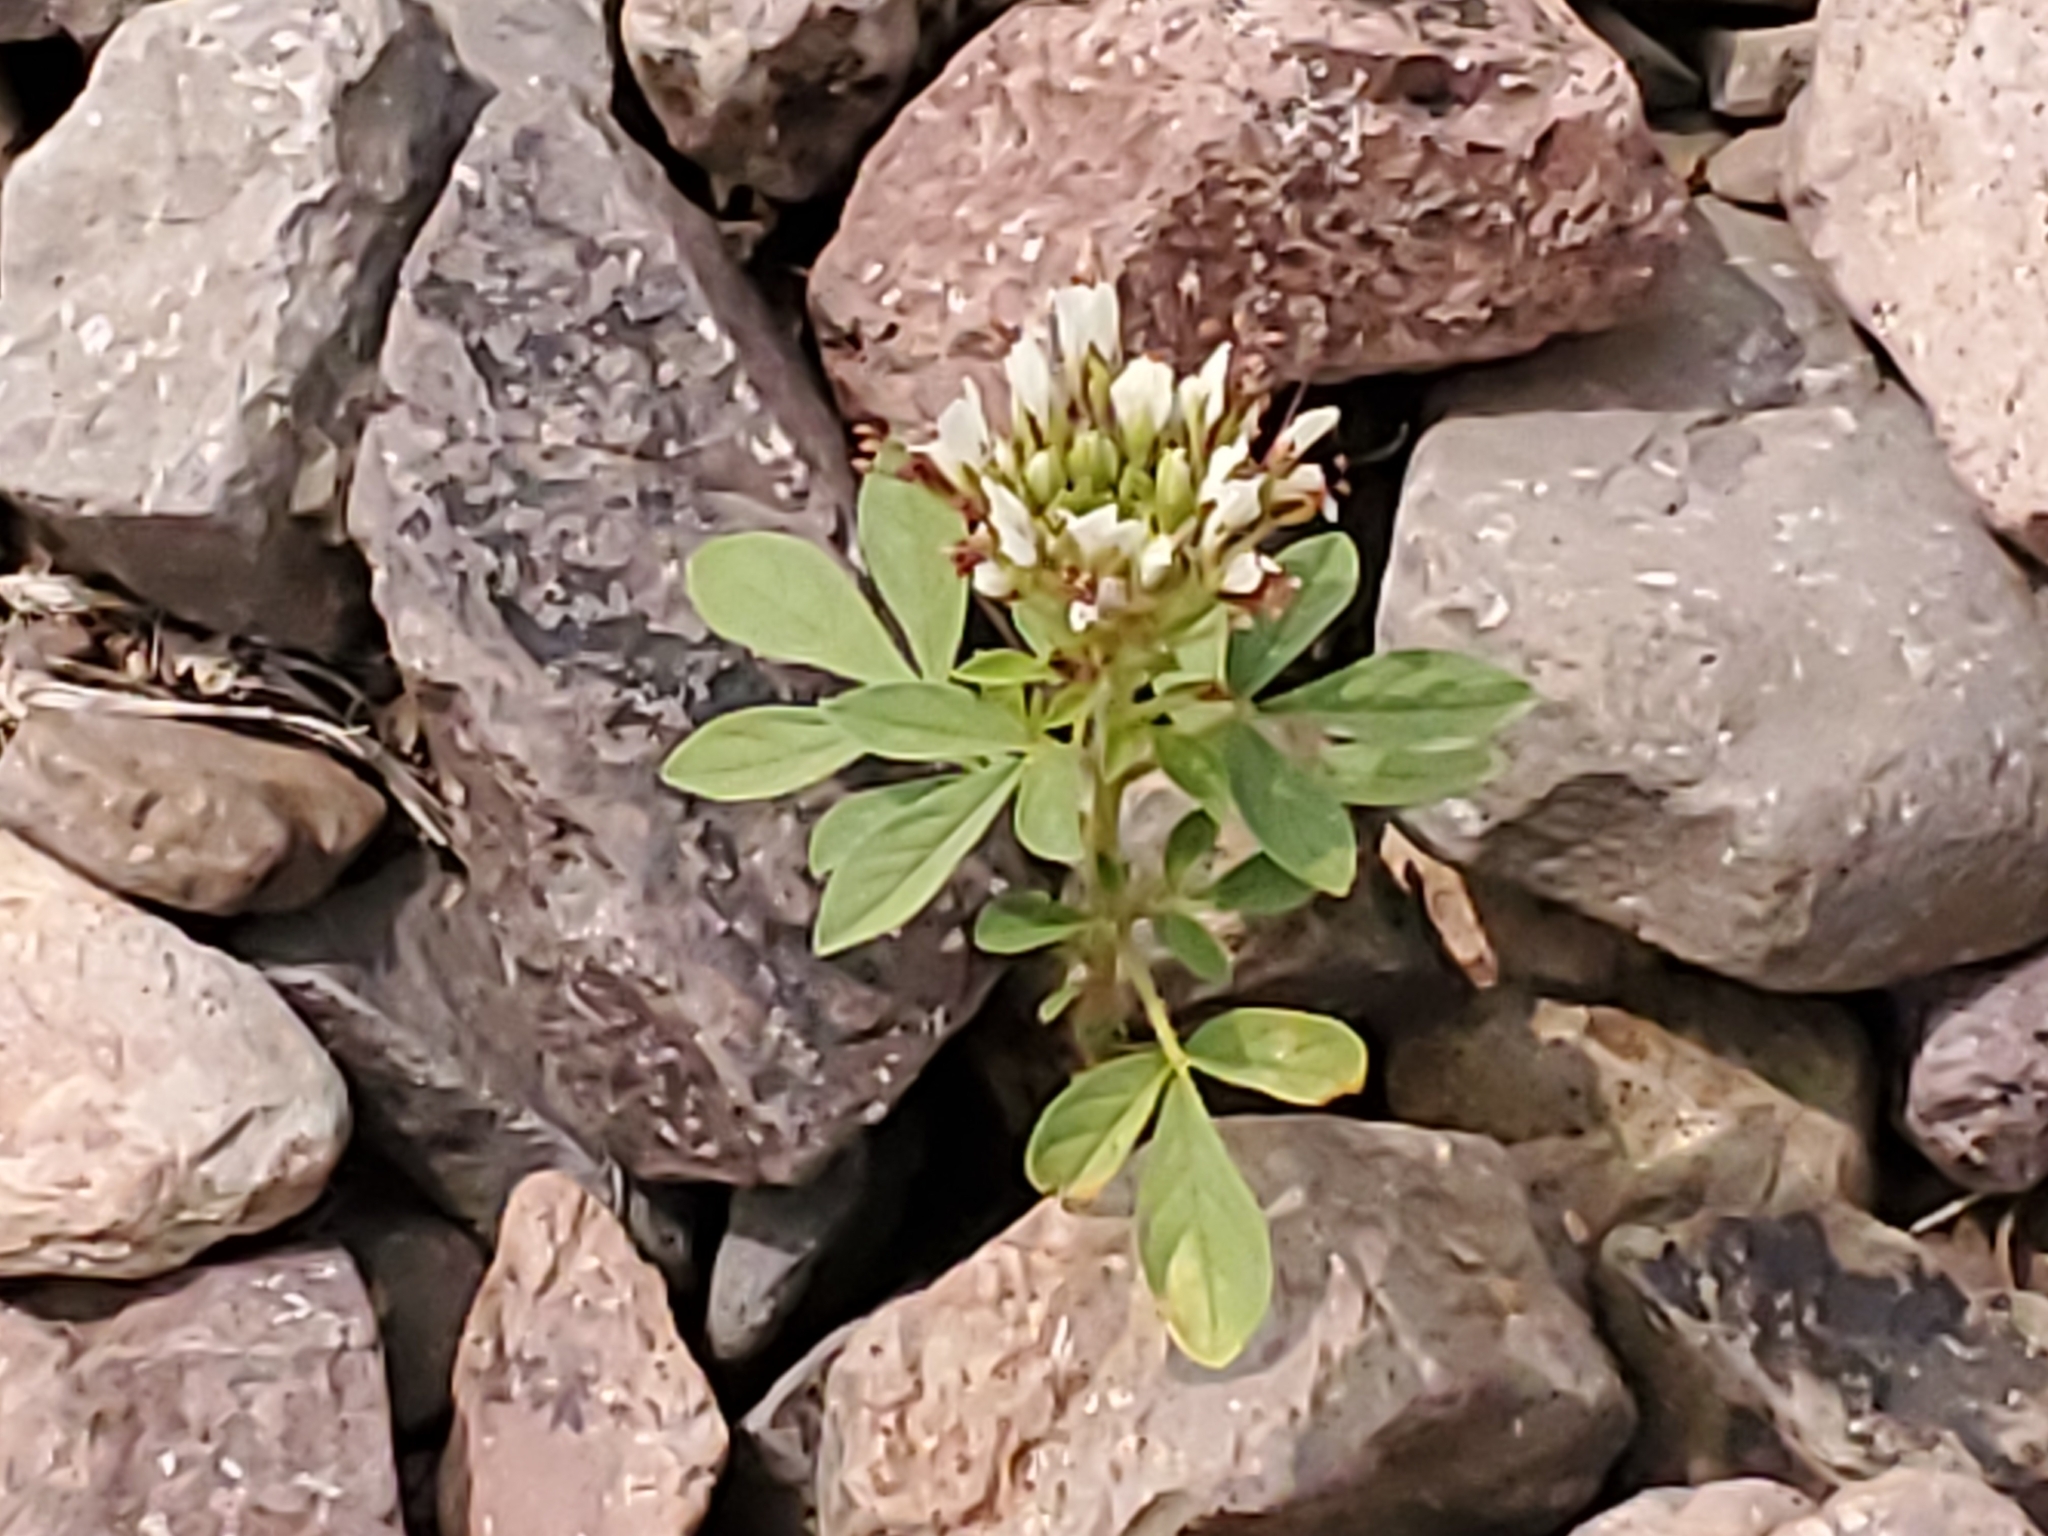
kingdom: Plantae
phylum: Tracheophyta
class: Magnoliopsida
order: Brassicales
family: Cleomaceae
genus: Polanisia
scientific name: Polanisia dodecandra
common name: Clammyweed
